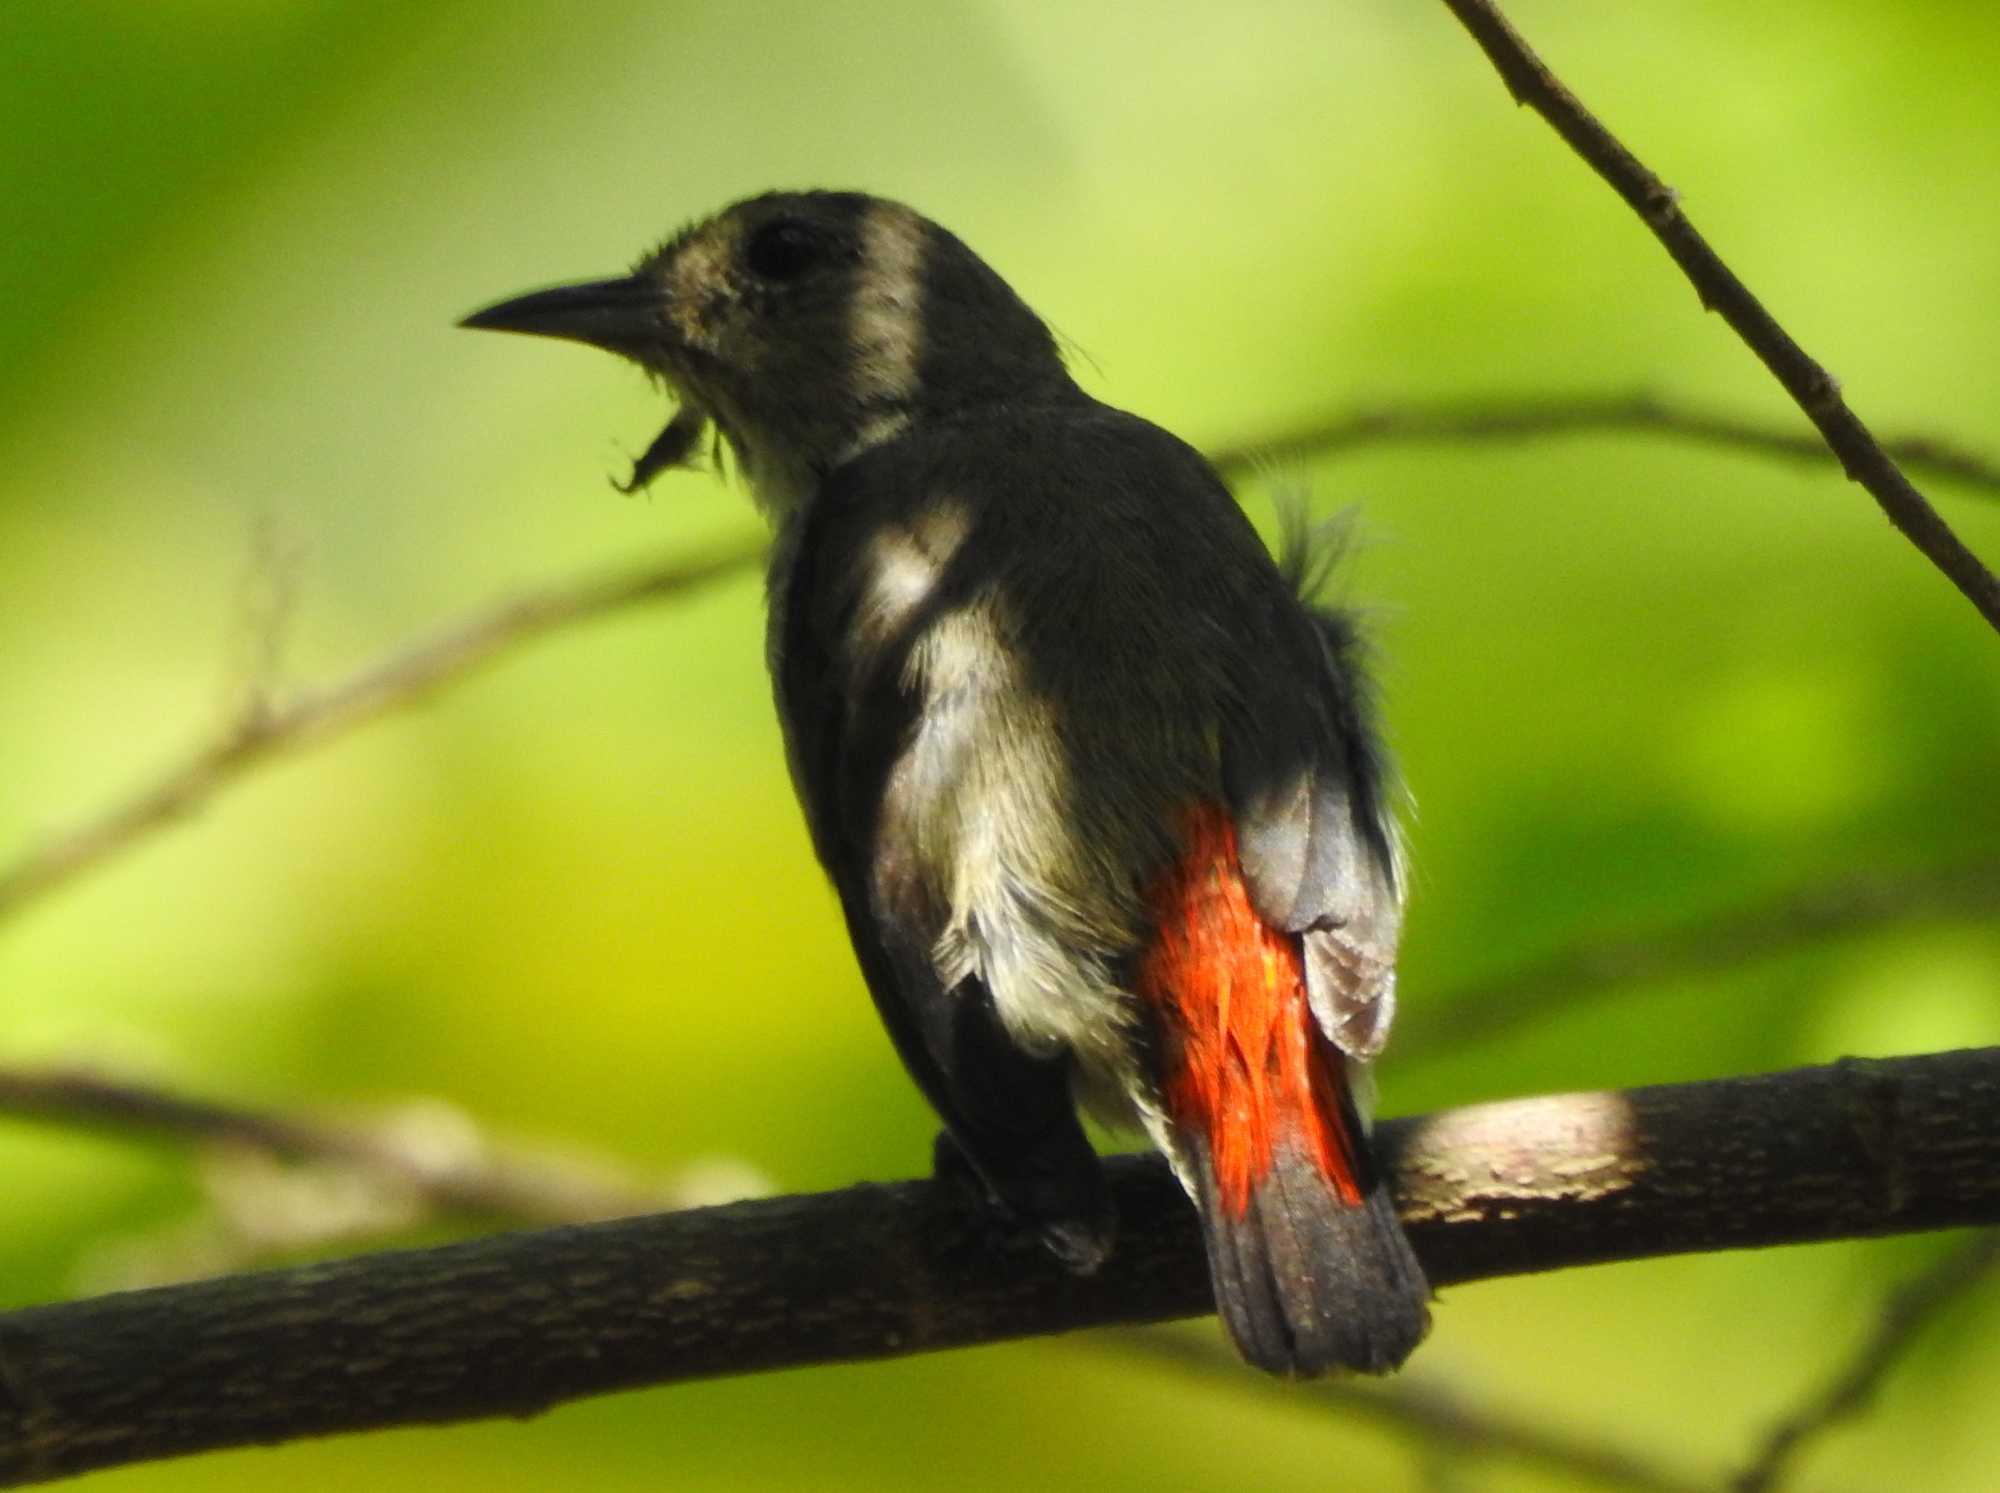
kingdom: Animalia
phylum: Chordata
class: Aves
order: Passeriformes
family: Dicaeidae
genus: Dicaeum
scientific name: Dicaeum cruentatum
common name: Scarlet-backed flowerpecker
